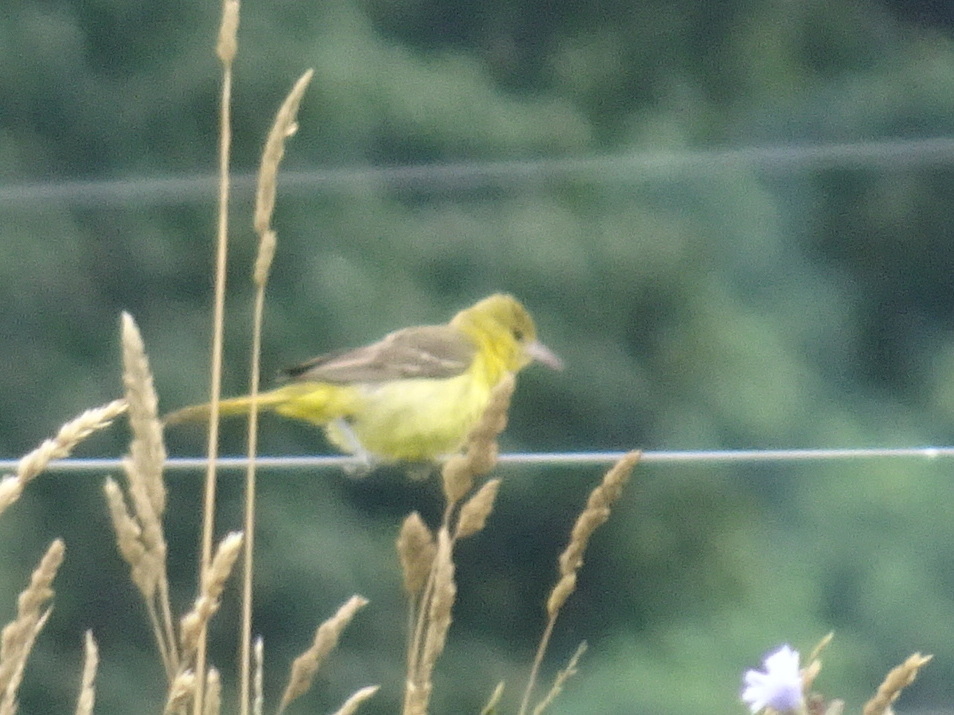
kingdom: Animalia
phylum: Chordata
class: Aves
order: Passeriformes
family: Icteridae
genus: Icterus
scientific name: Icterus spurius
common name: Orchard oriole
